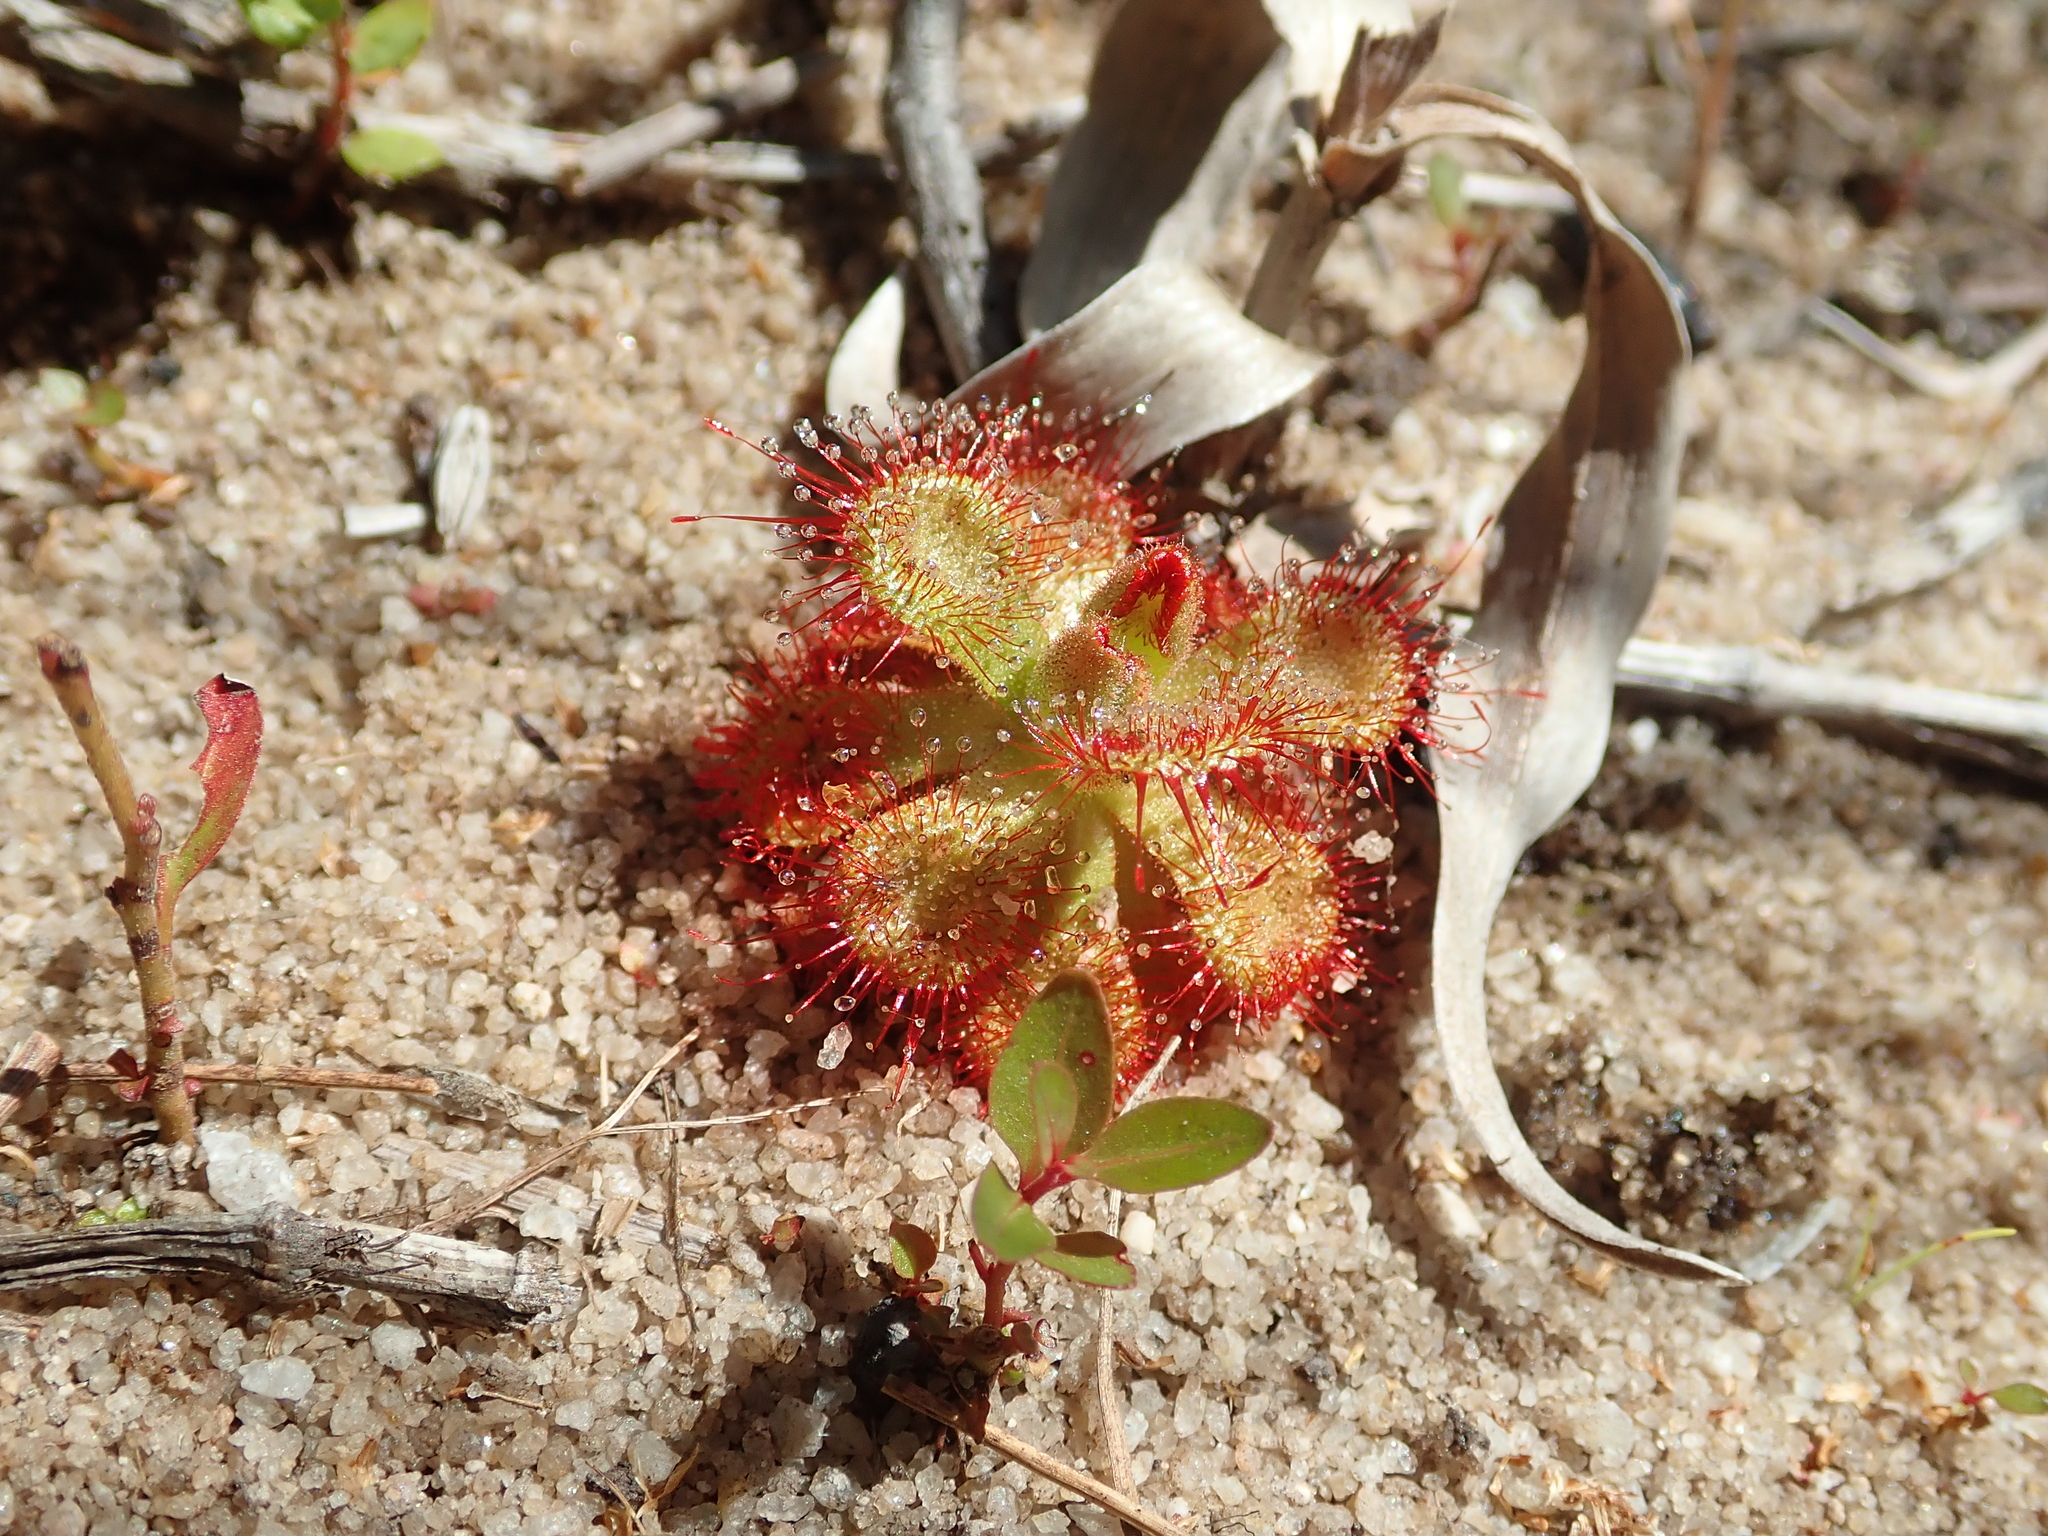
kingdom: Plantae
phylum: Tracheophyta
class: Magnoliopsida
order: Caryophyllales
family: Droseraceae
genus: Drosera
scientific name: Drosera sessilifolia
